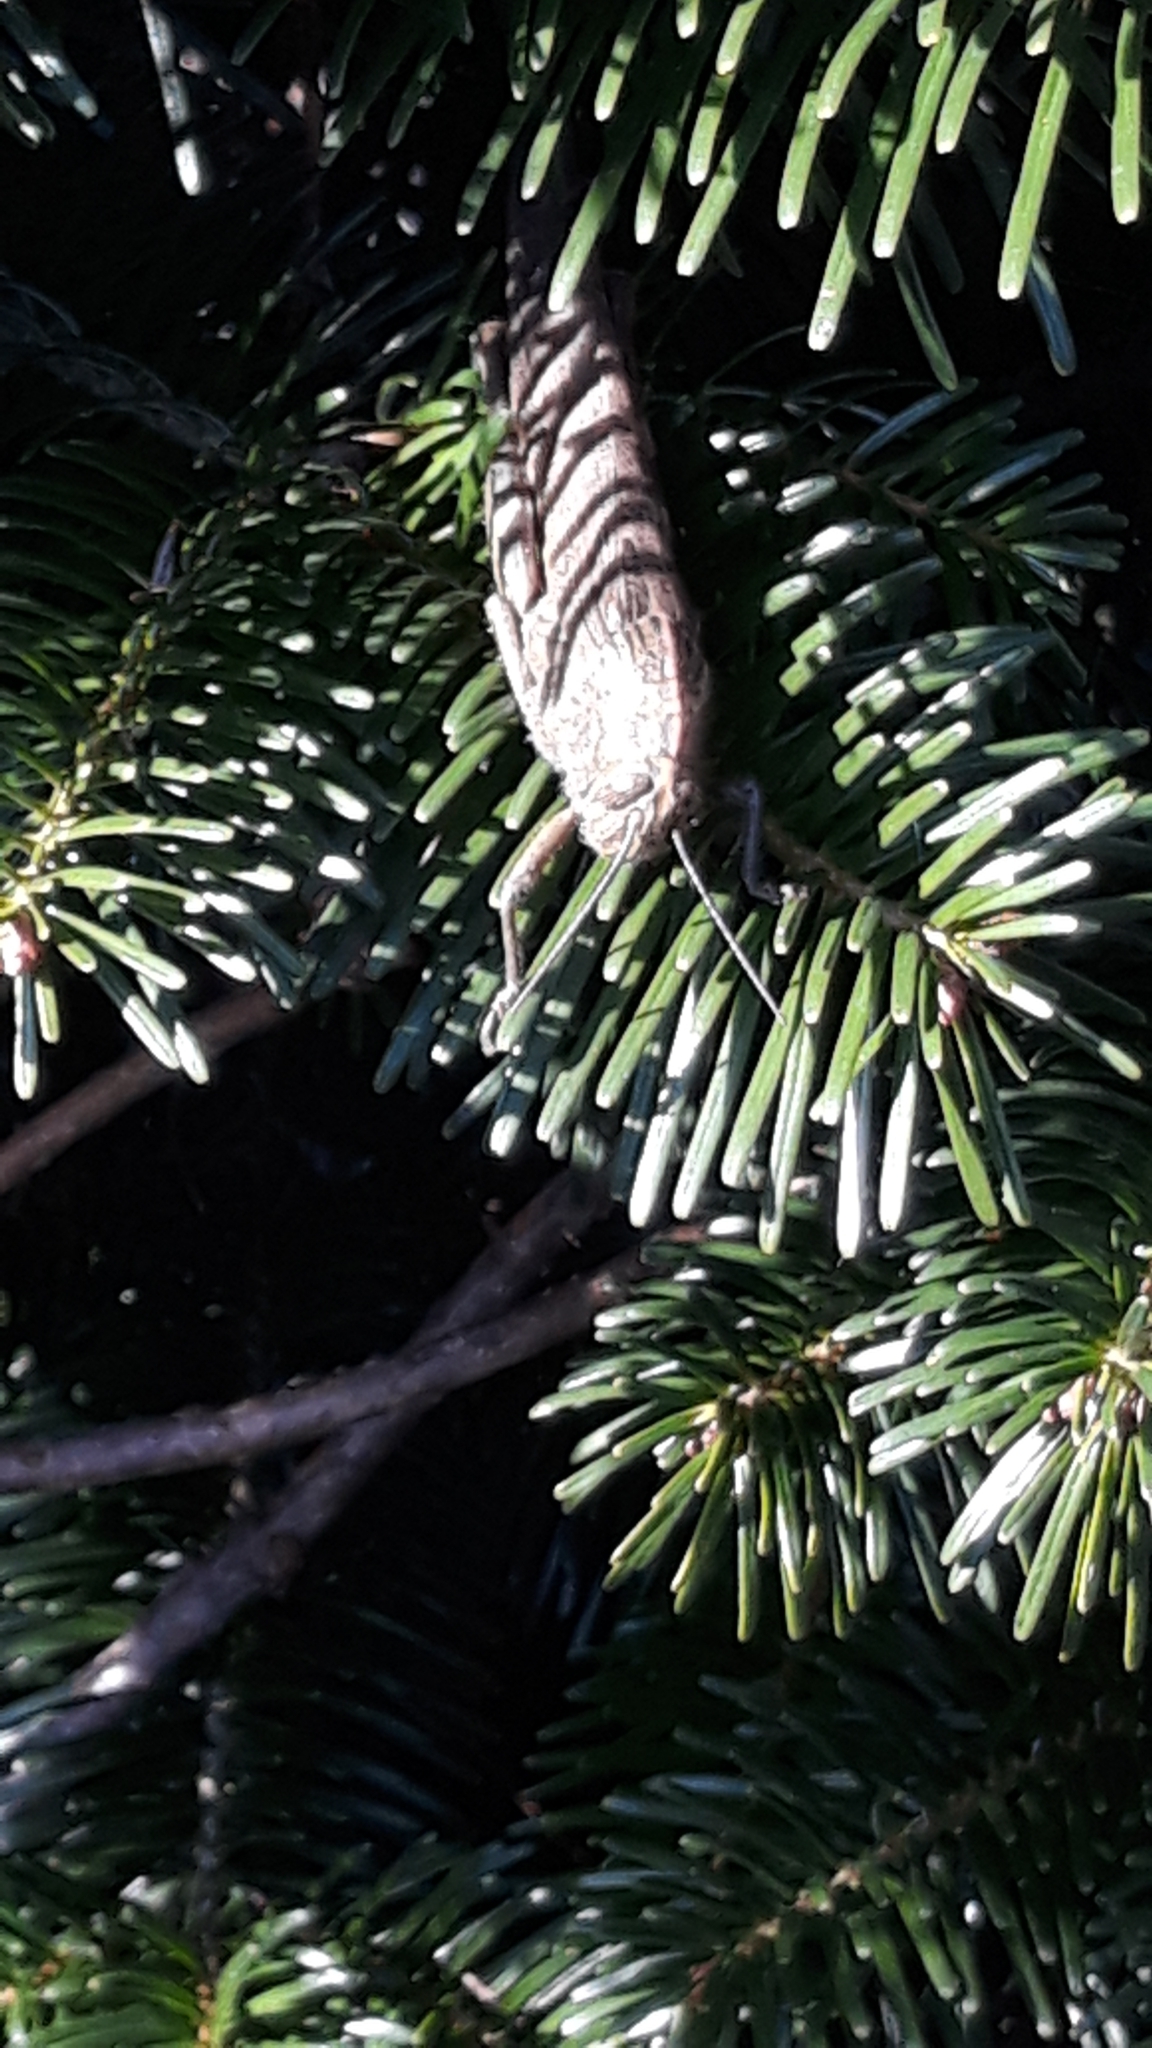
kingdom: Animalia
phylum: Arthropoda
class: Insecta
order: Orthoptera
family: Acrididae
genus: Anacridium
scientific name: Anacridium aegyptium
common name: Egyptian grasshopper
